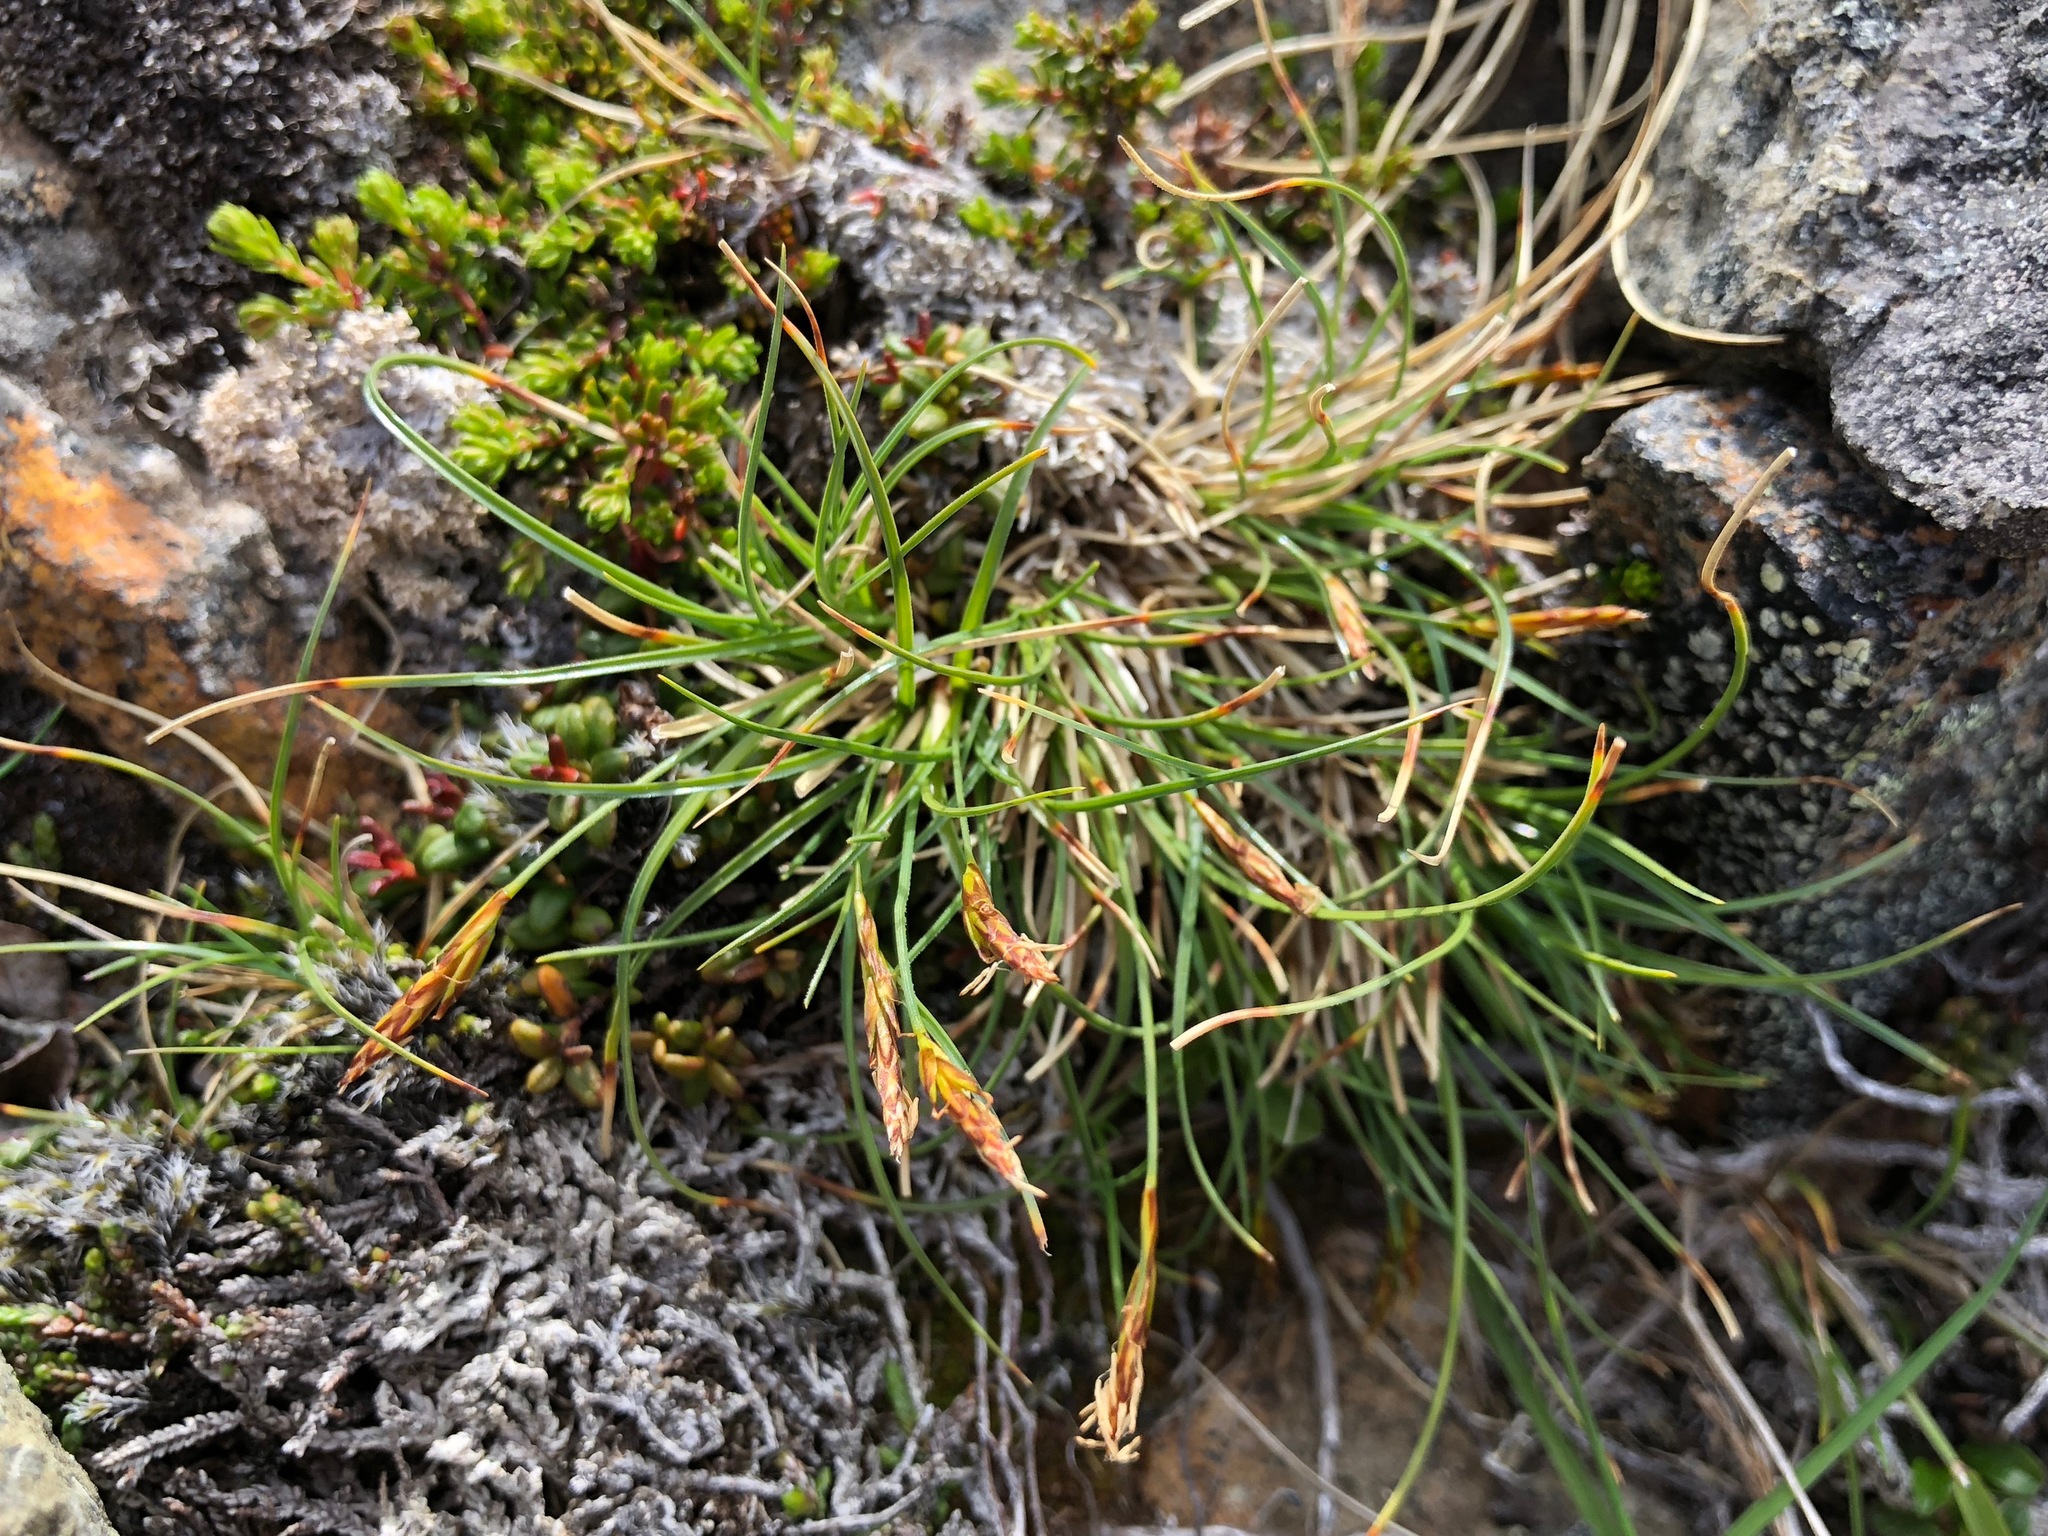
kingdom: Plantae
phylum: Tracheophyta
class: Liliopsida
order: Poales
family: Cyperaceae
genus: Carex
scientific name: Carex anthoxanthea
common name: Grassy-slope arctic sedge
